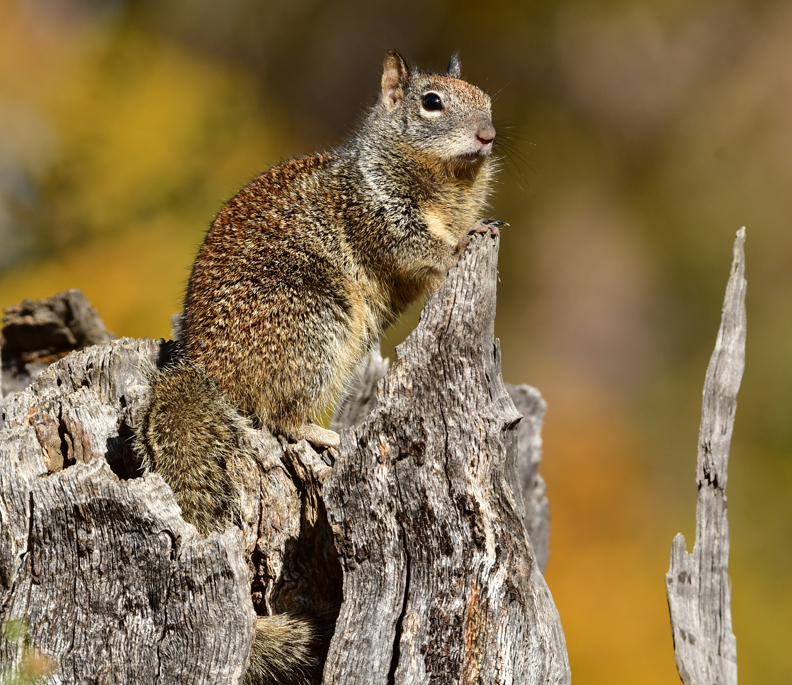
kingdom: Animalia
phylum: Chordata
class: Mammalia
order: Rodentia
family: Sciuridae
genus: Otospermophilus
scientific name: Otospermophilus beecheyi
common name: California ground squirrel
